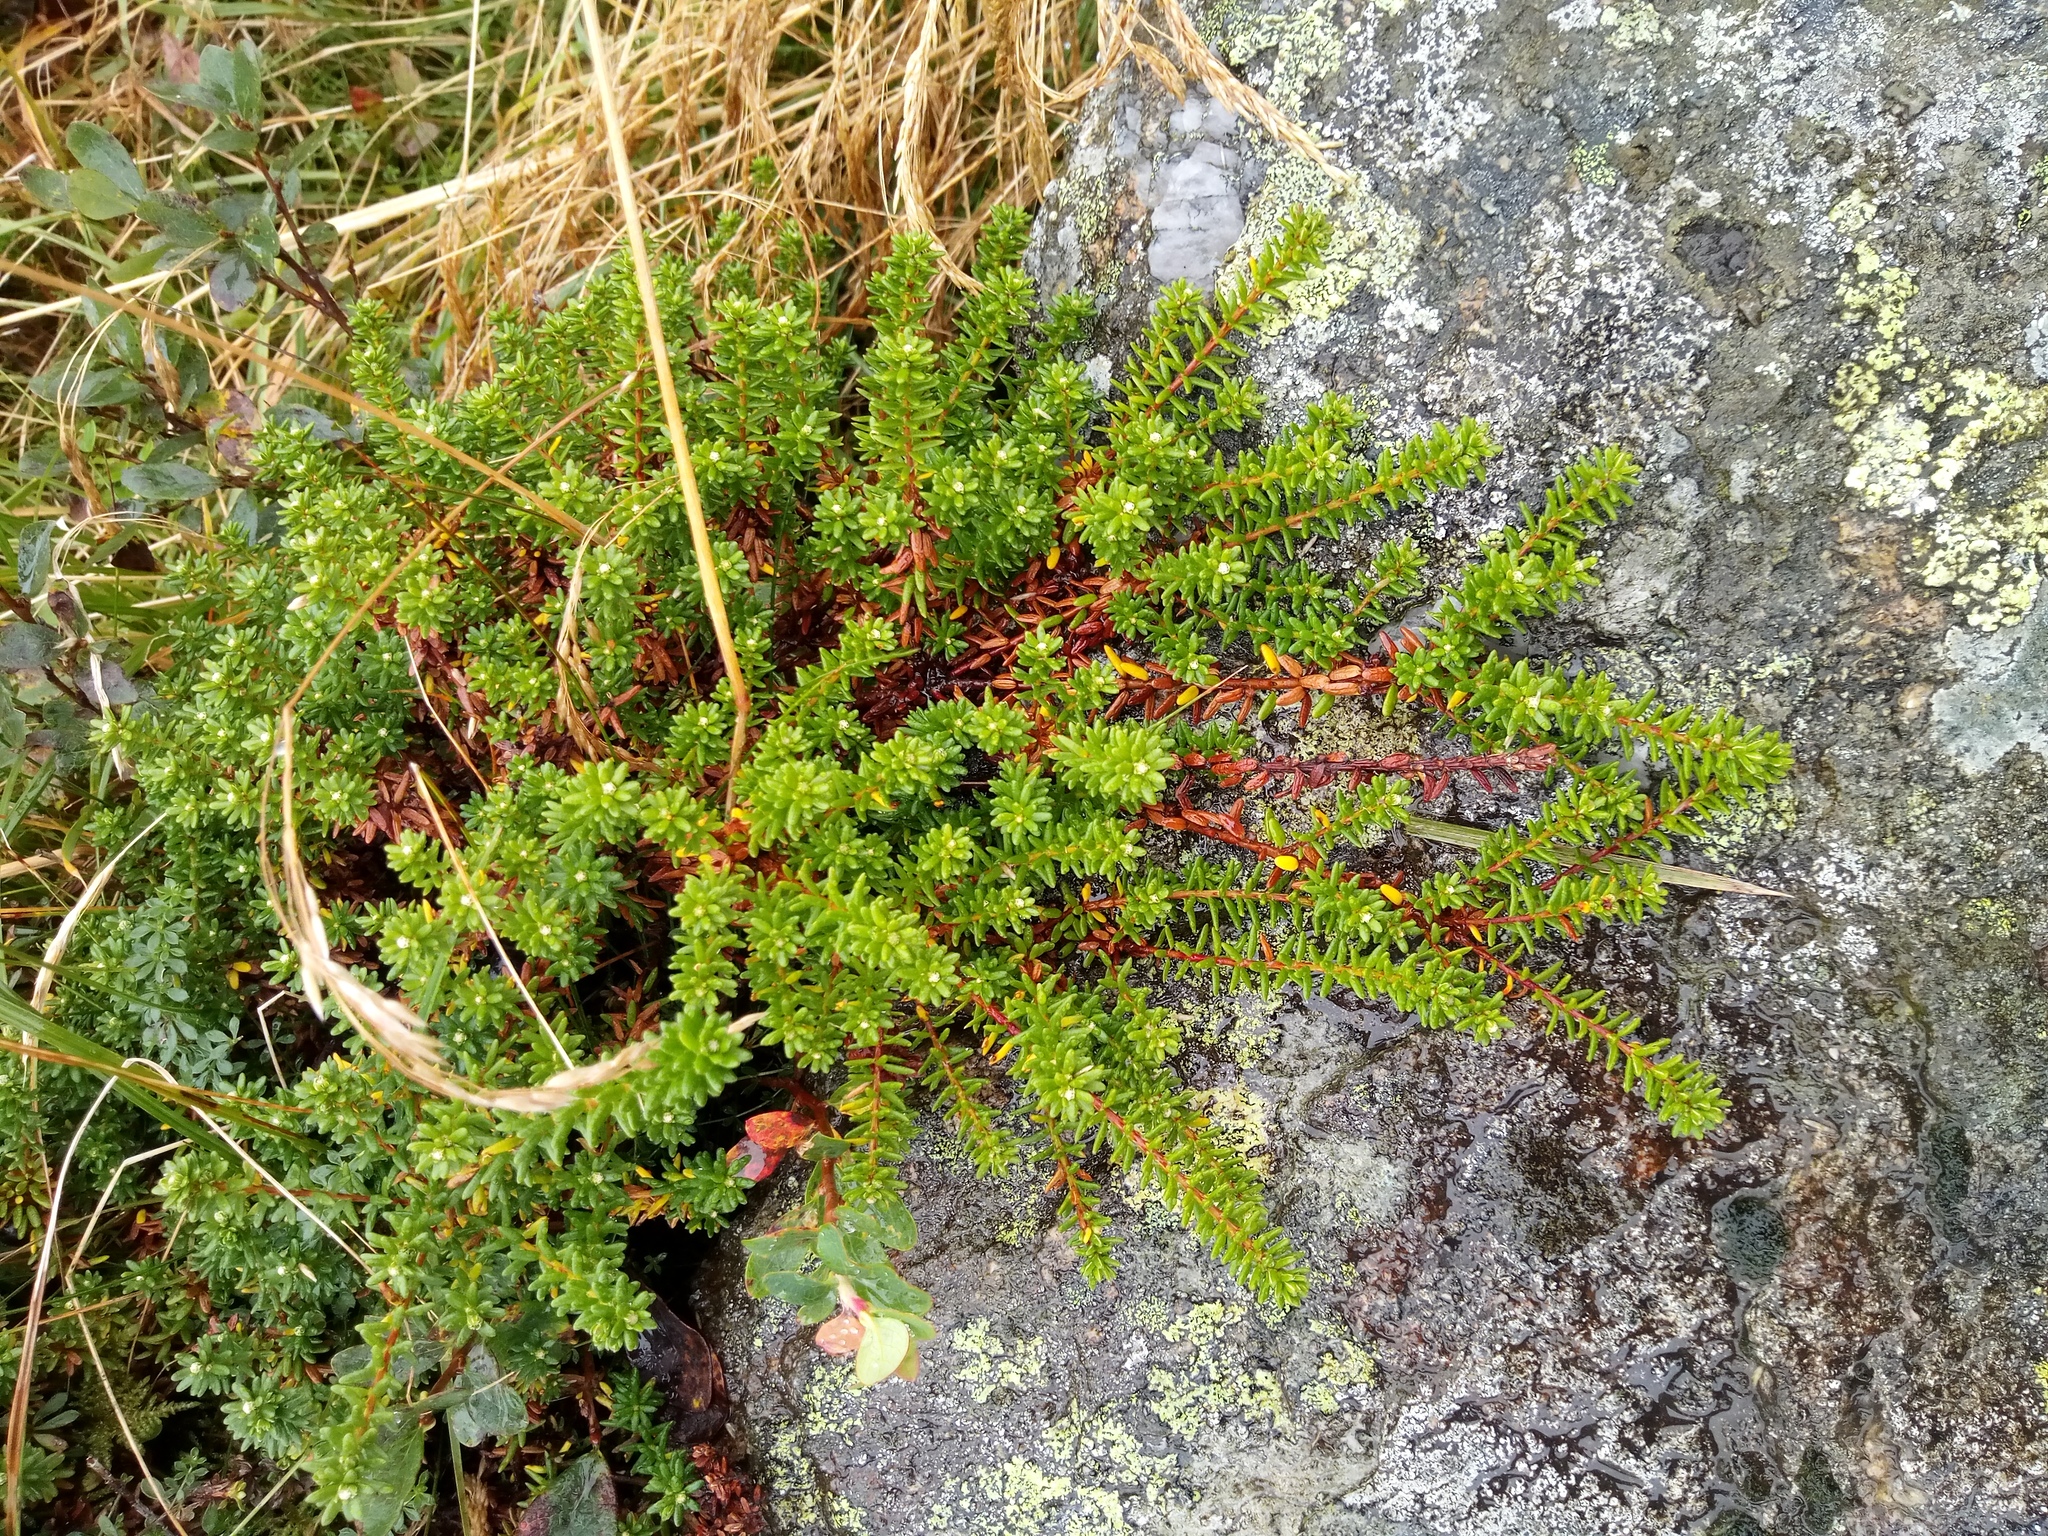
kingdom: Plantae
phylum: Tracheophyta
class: Magnoliopsida
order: Ericales
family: Ericaceae
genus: Empetrum
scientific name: Empetrum nigrum
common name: Black crowberry
